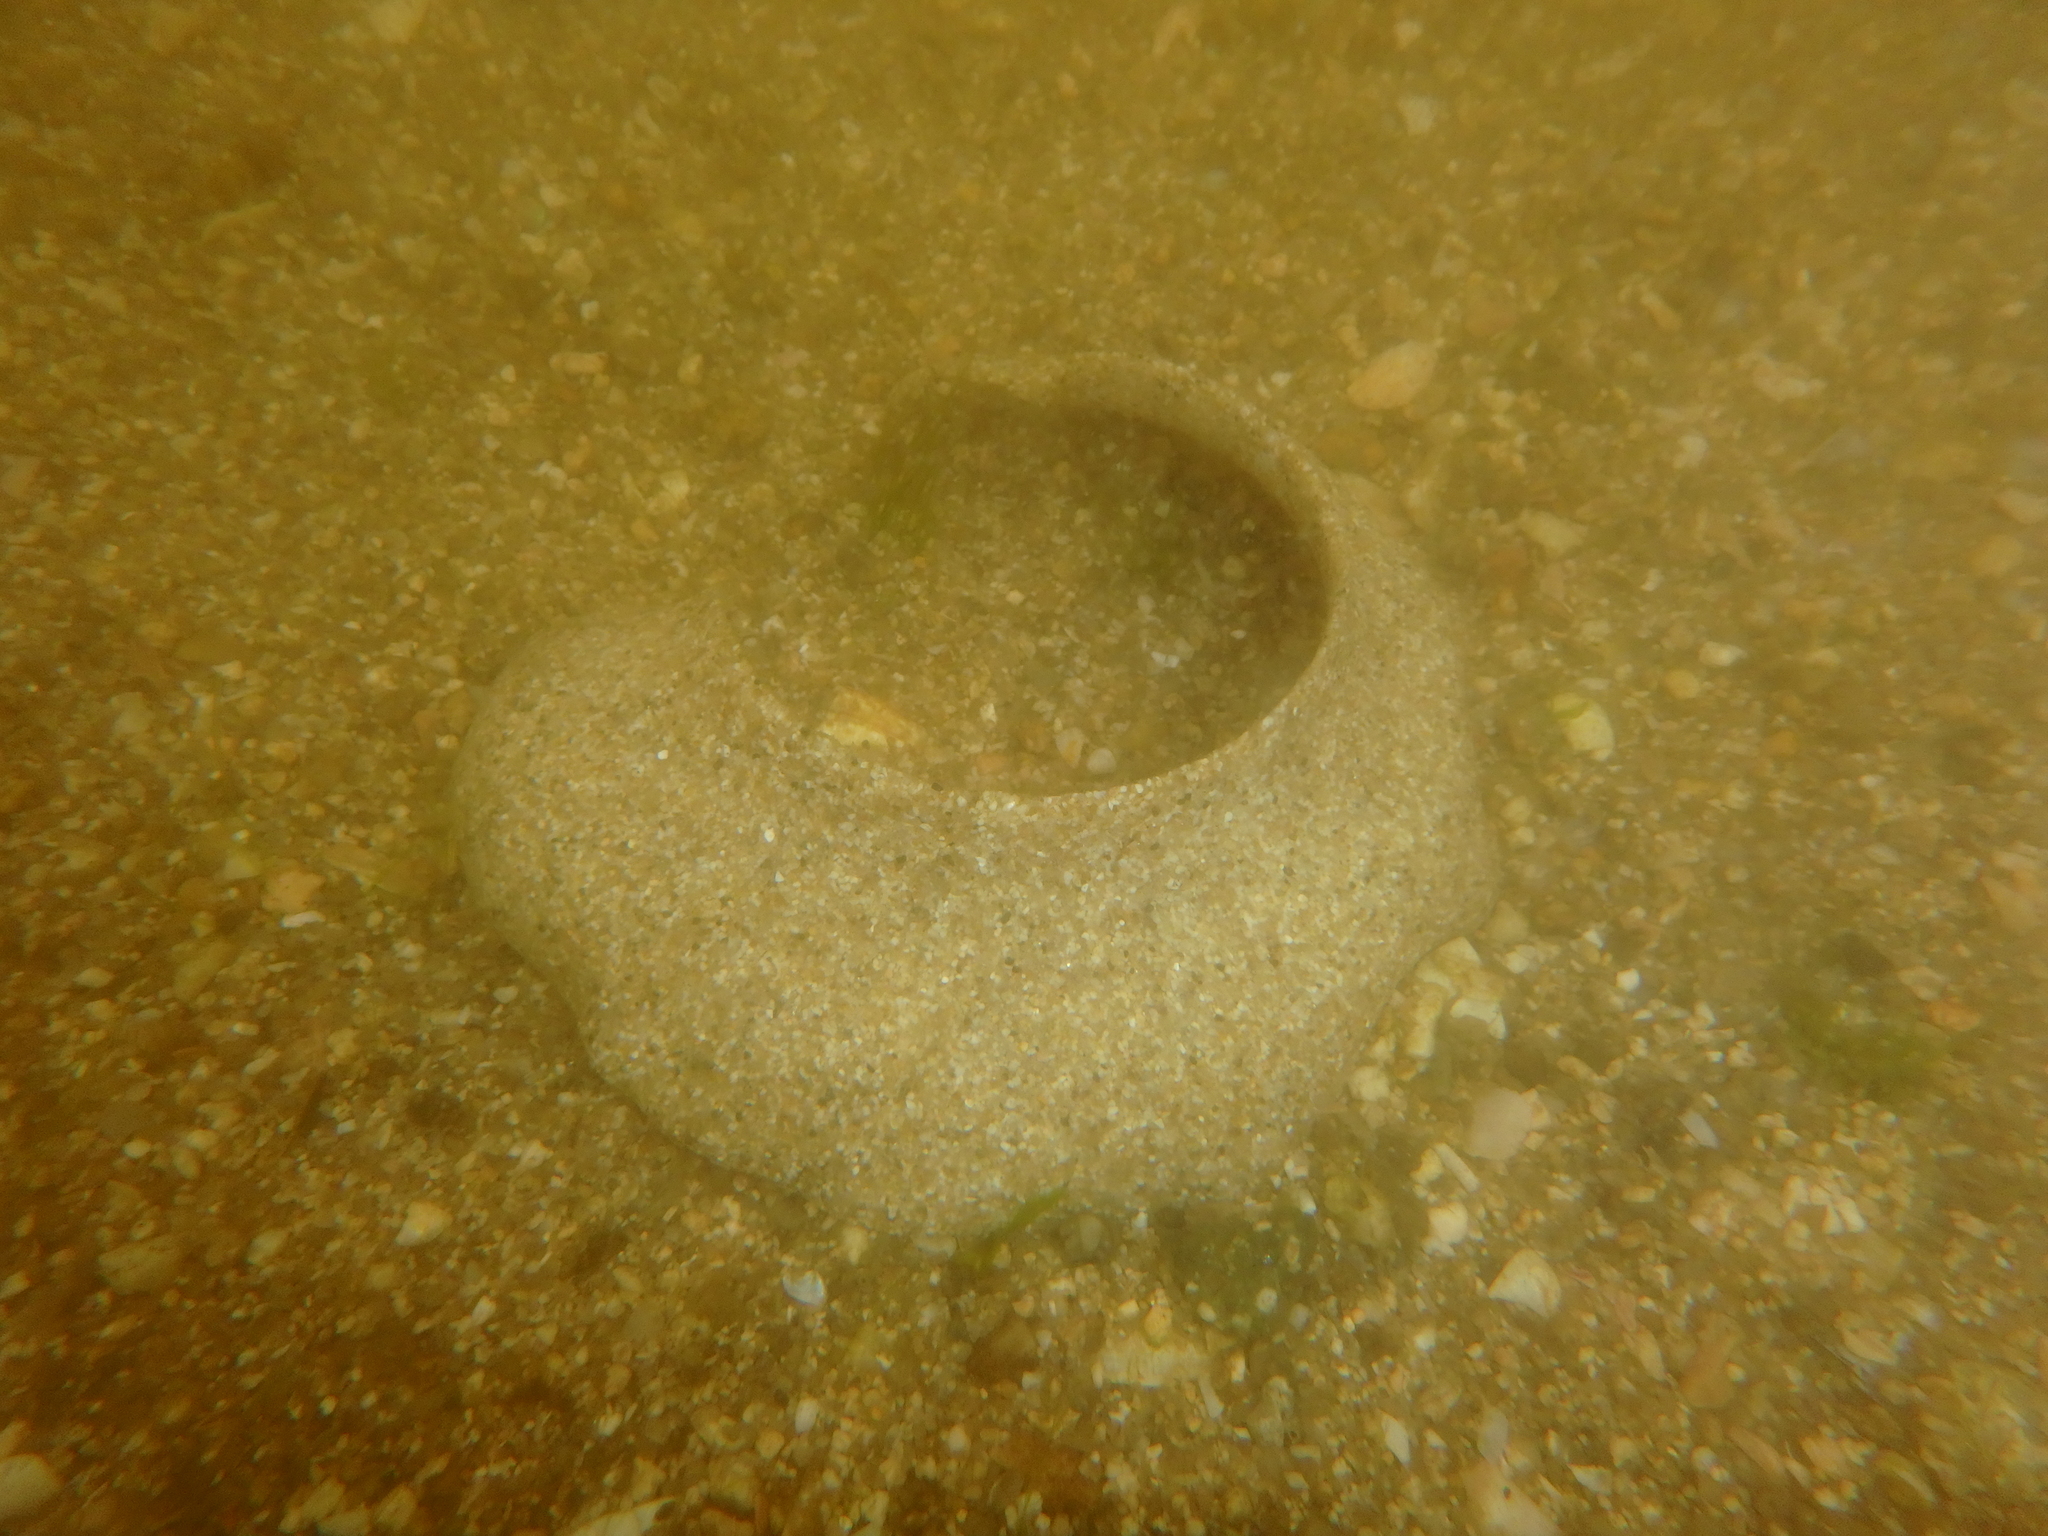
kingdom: Animalia
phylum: Mollusca
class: Gastropoda
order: Littorinimorpha
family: Naticidae
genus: Neverita
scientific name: Neverita didyma
